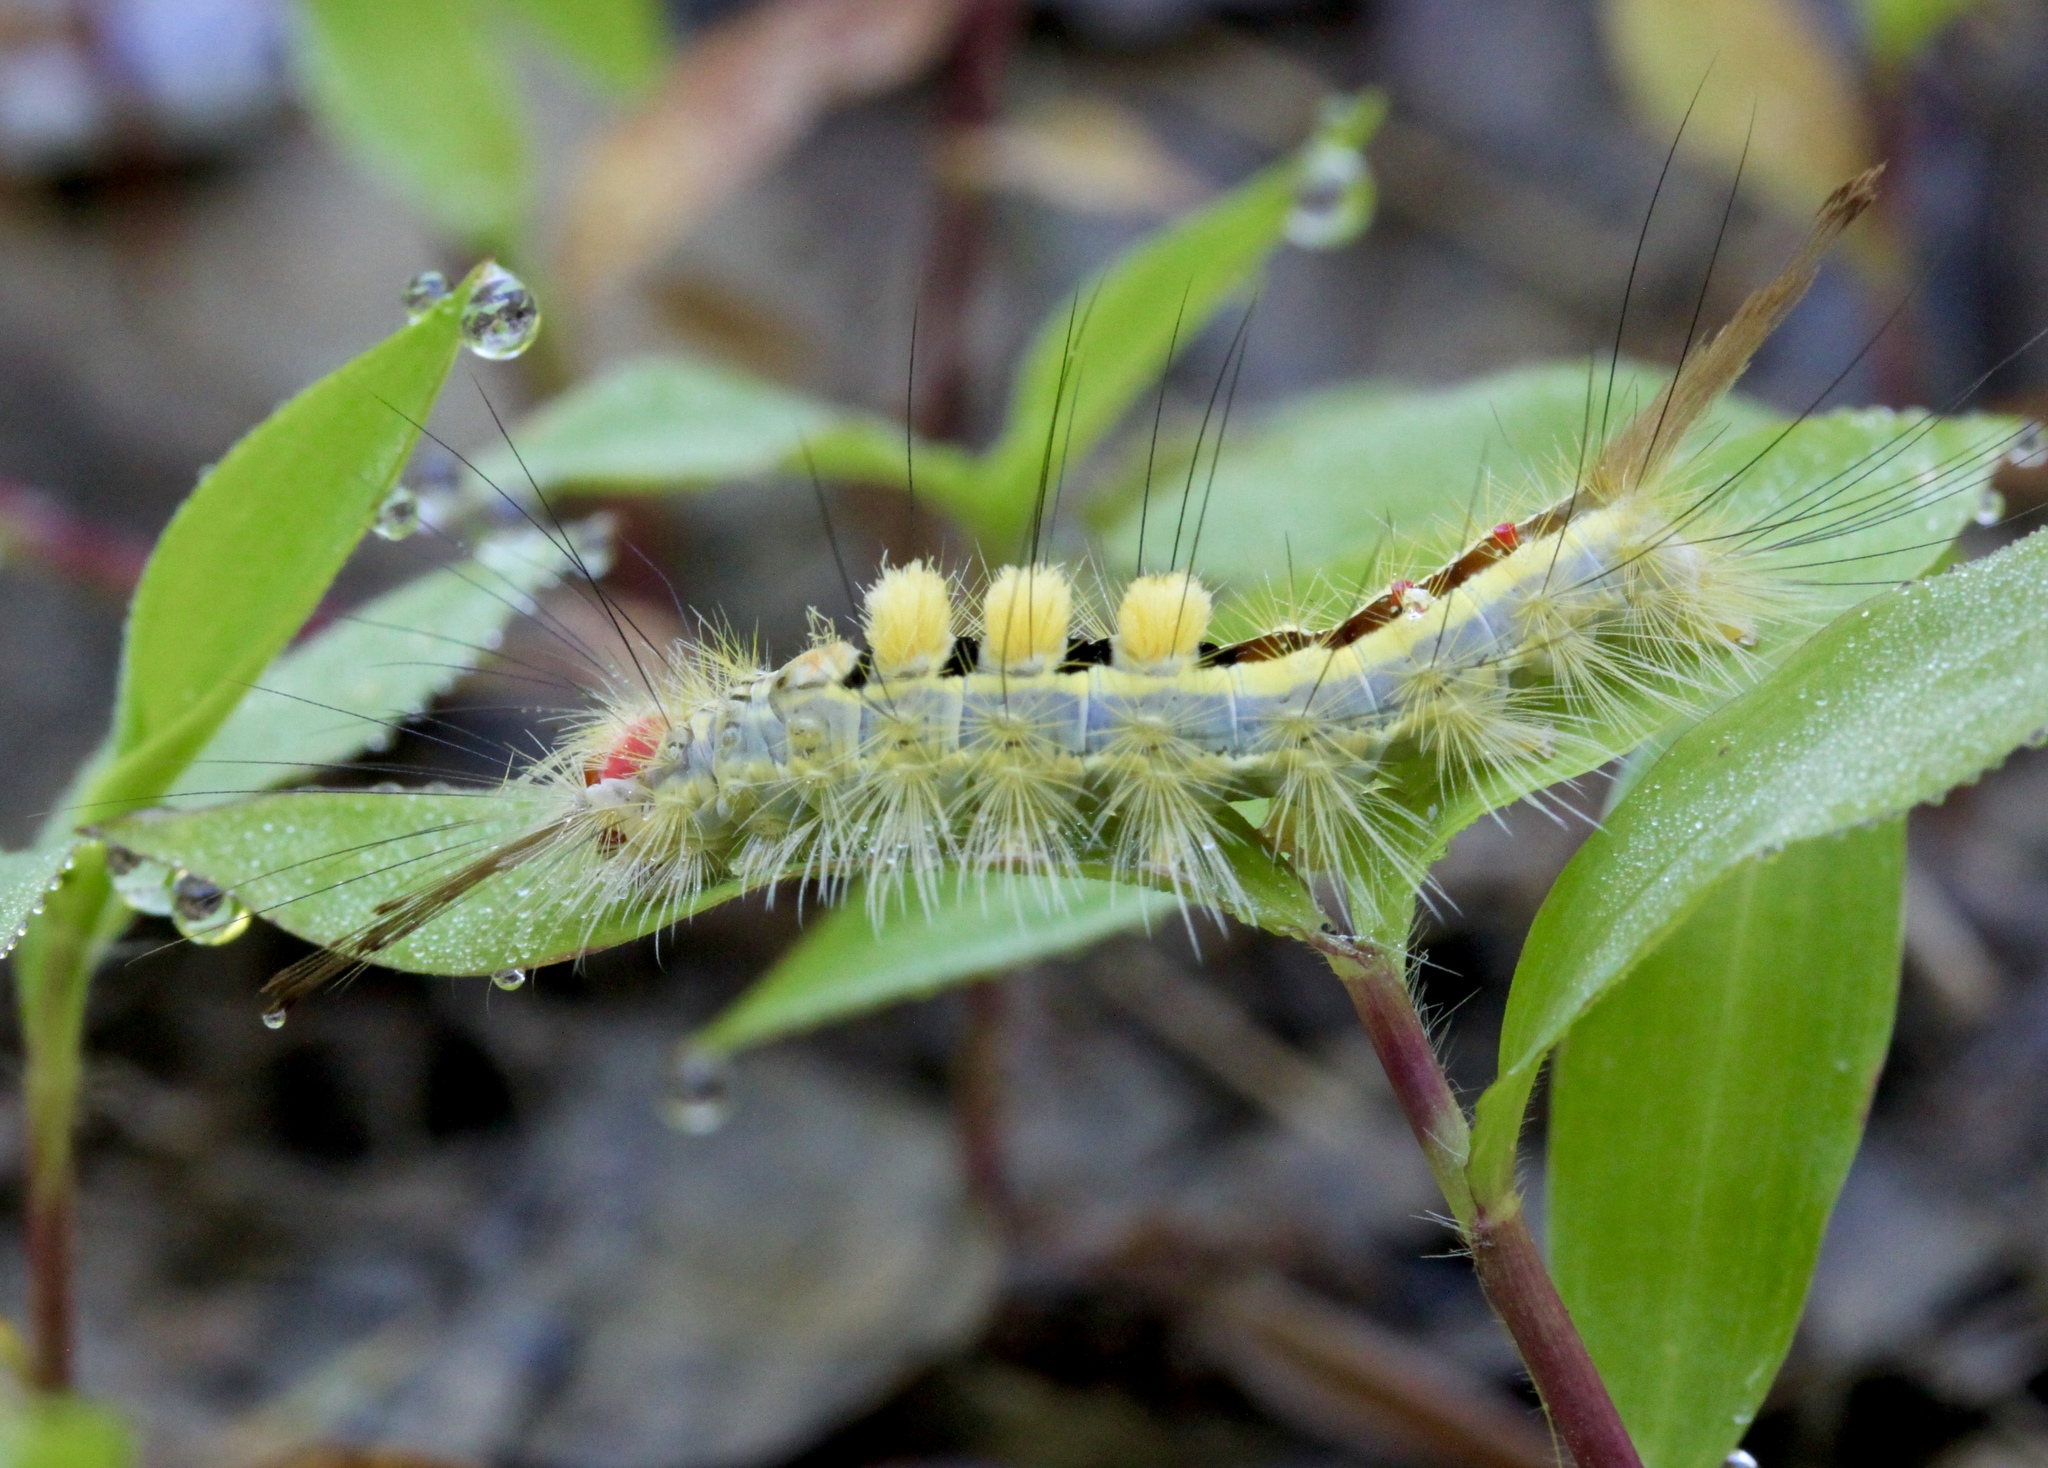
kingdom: Animalia
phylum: Arthropoda
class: Insecta
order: Lepidoptera
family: Erebidae
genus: Orgyia
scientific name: Orgyia leucostigma
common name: White-marked tussock moth
